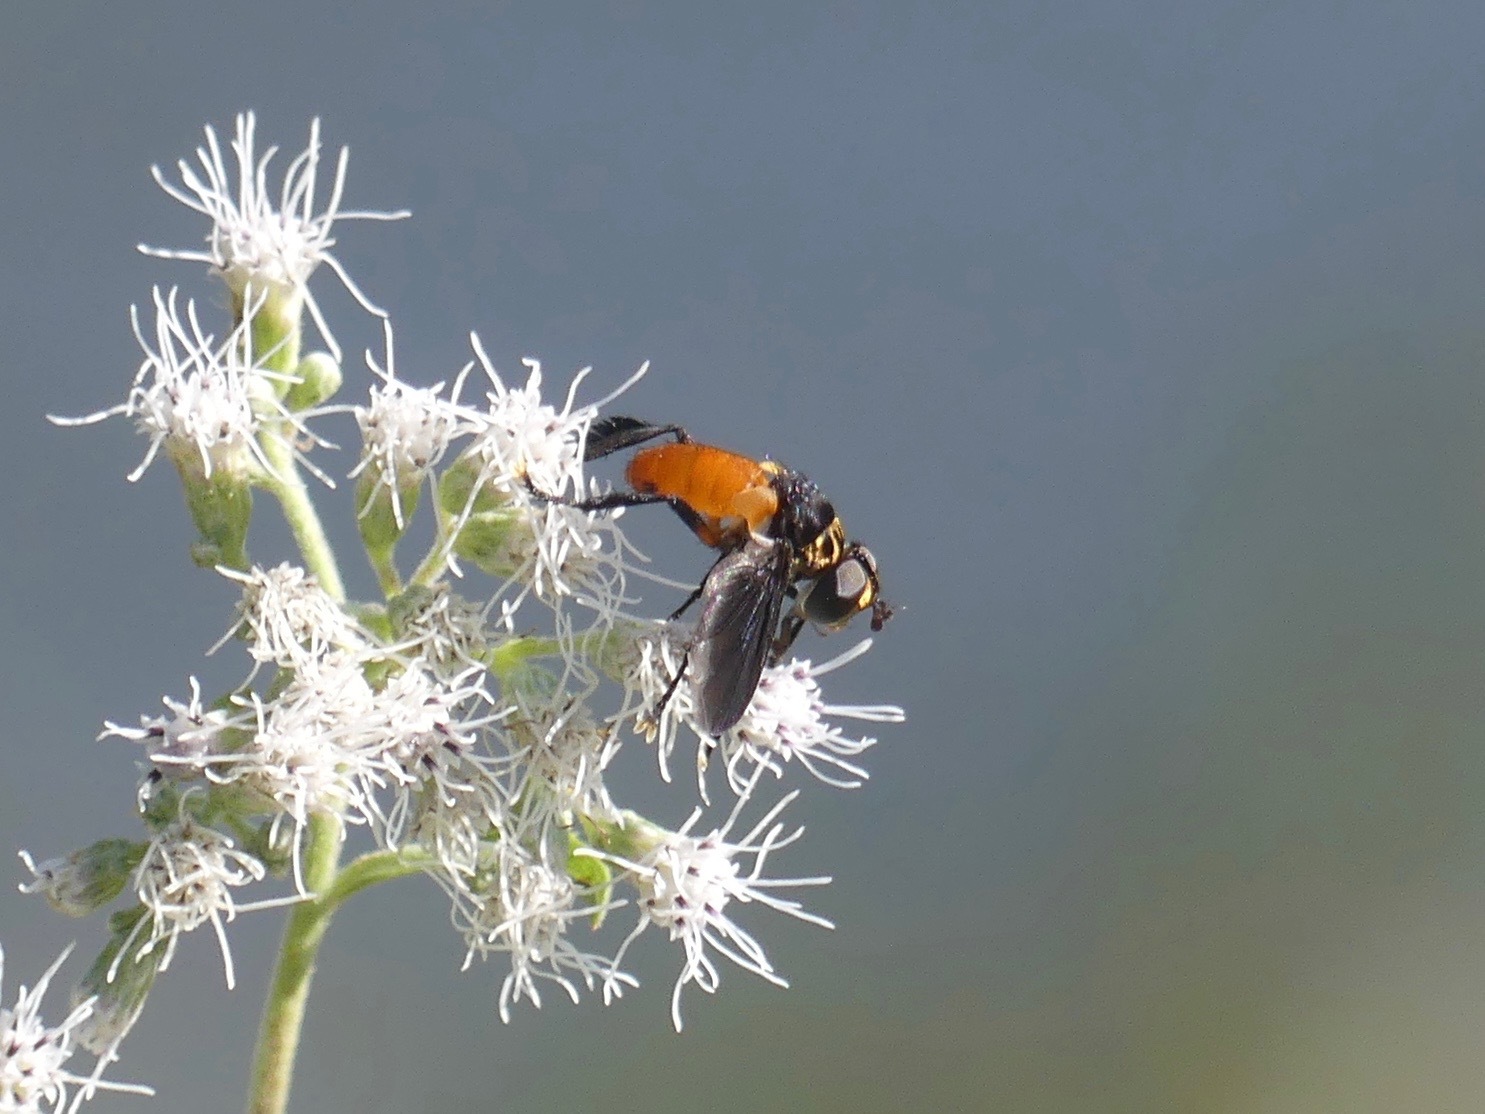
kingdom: Animalia
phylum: Arthropoda
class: Insecta
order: Diptera
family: Tachinidae
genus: Trichopoda
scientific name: Trichopoda pennipes
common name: Tachinid fly
